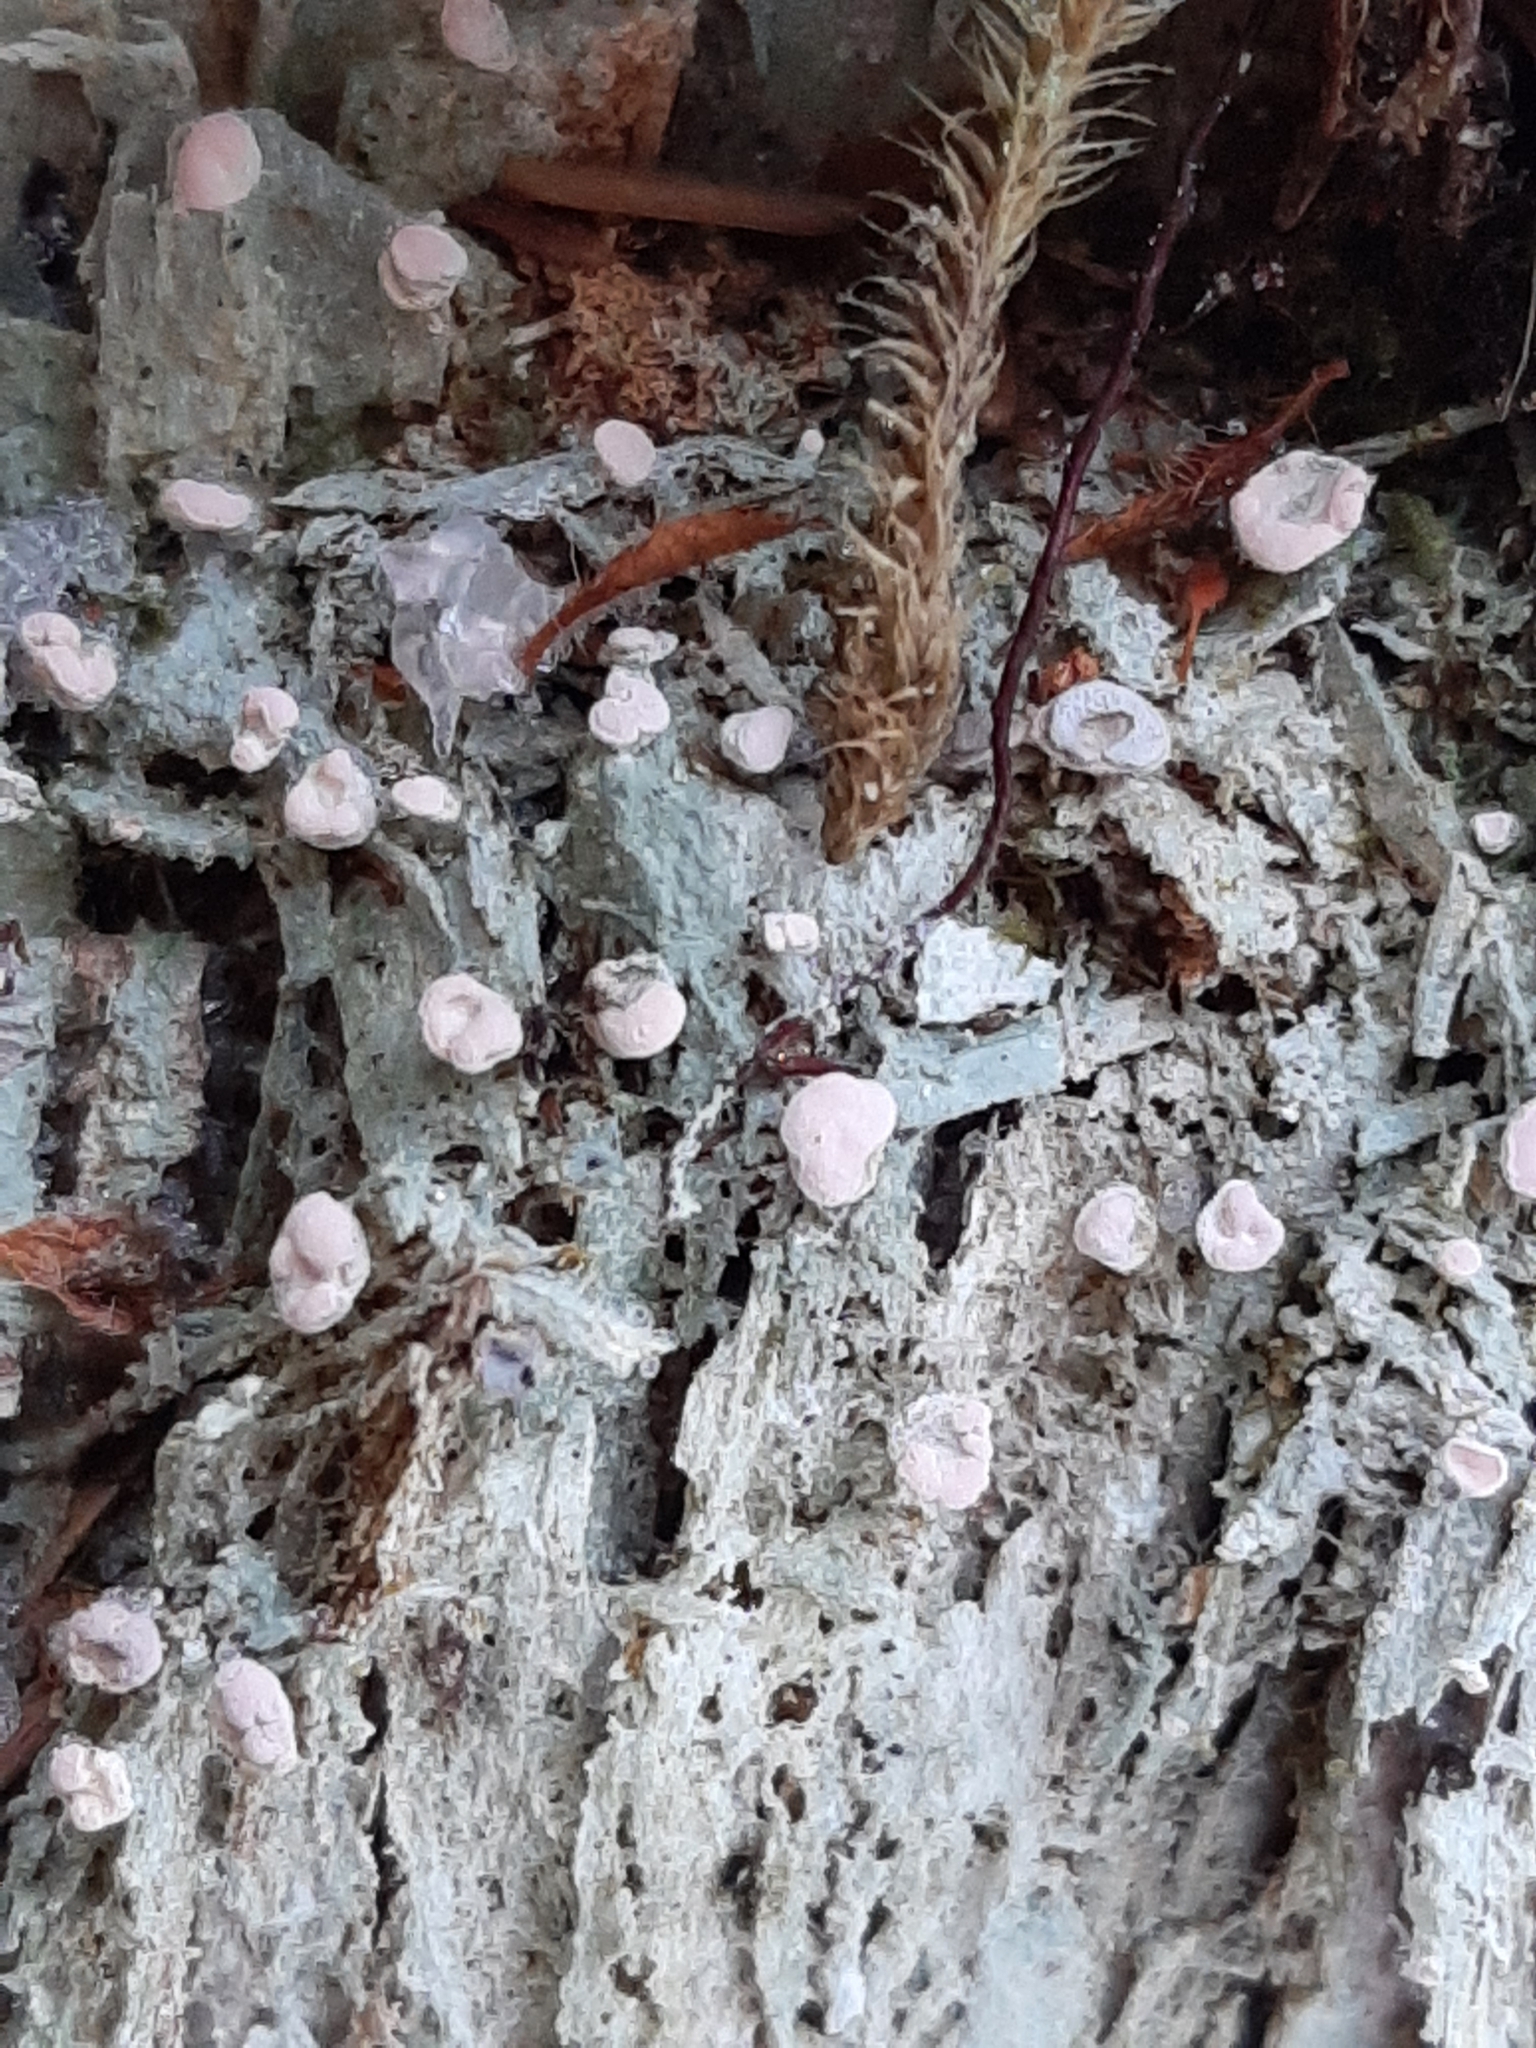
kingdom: Fungi
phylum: Ascomycota
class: Lecanoromycetes
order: Pertusariales
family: Icmadophilaceae
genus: Icmadophila
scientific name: Icmadophila ericetorum
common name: Candy lichen
